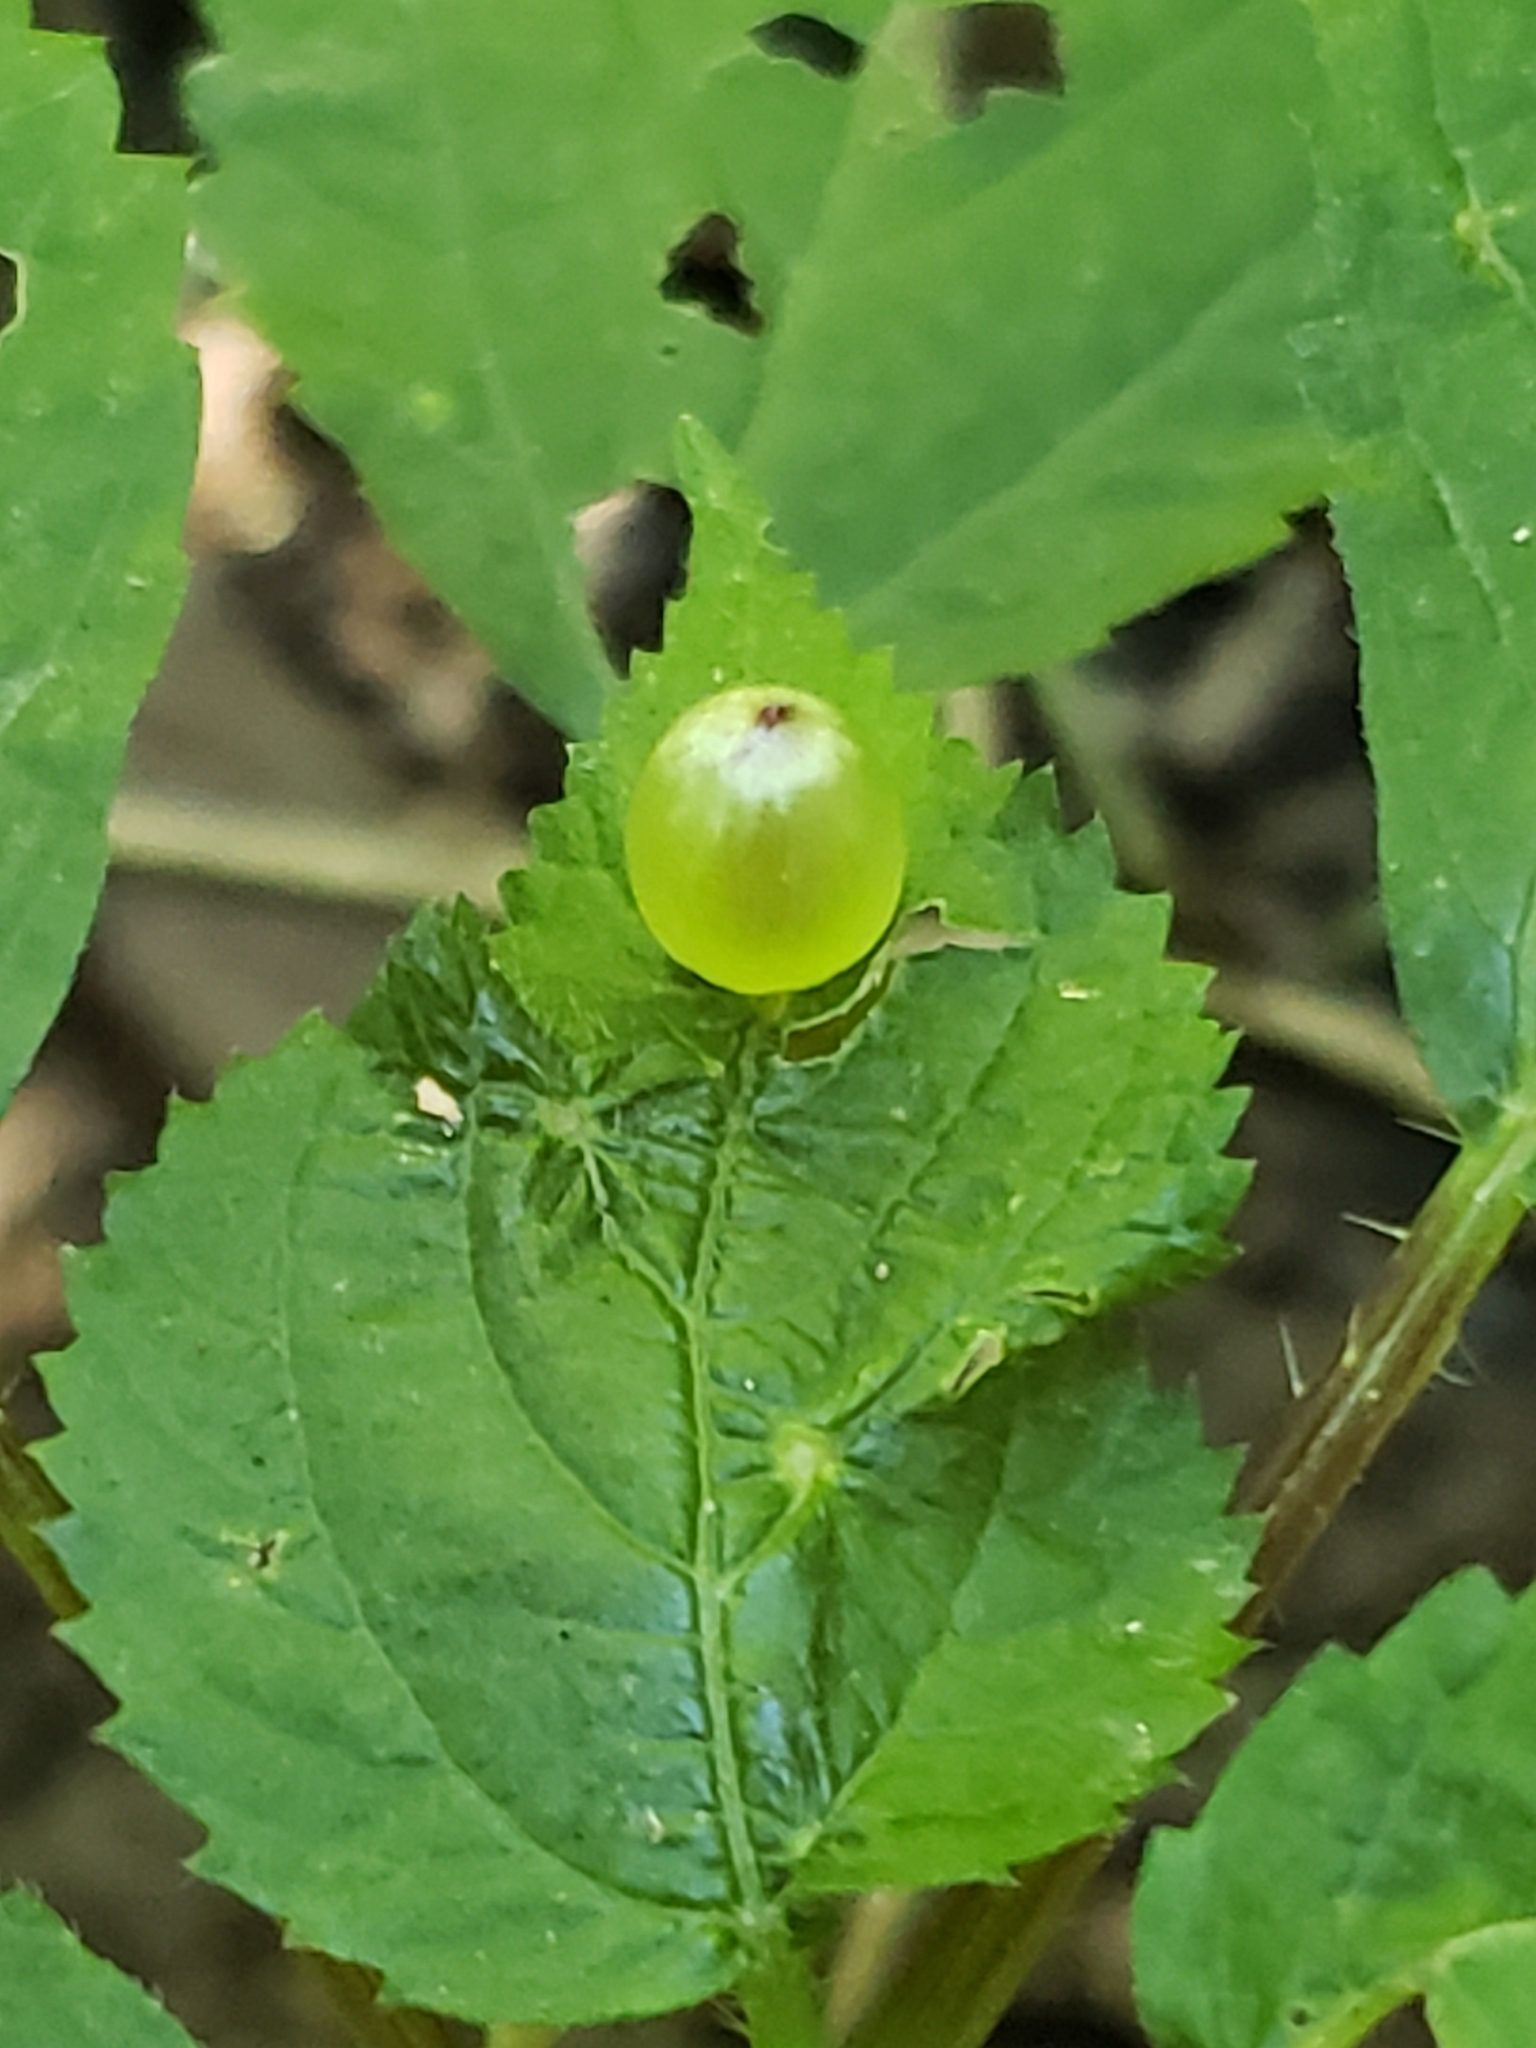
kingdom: Animalia
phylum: Arthropoda
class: Insecta
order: Diptera
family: Cecidomyiidae
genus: Dasineura
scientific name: Dasineura investita
